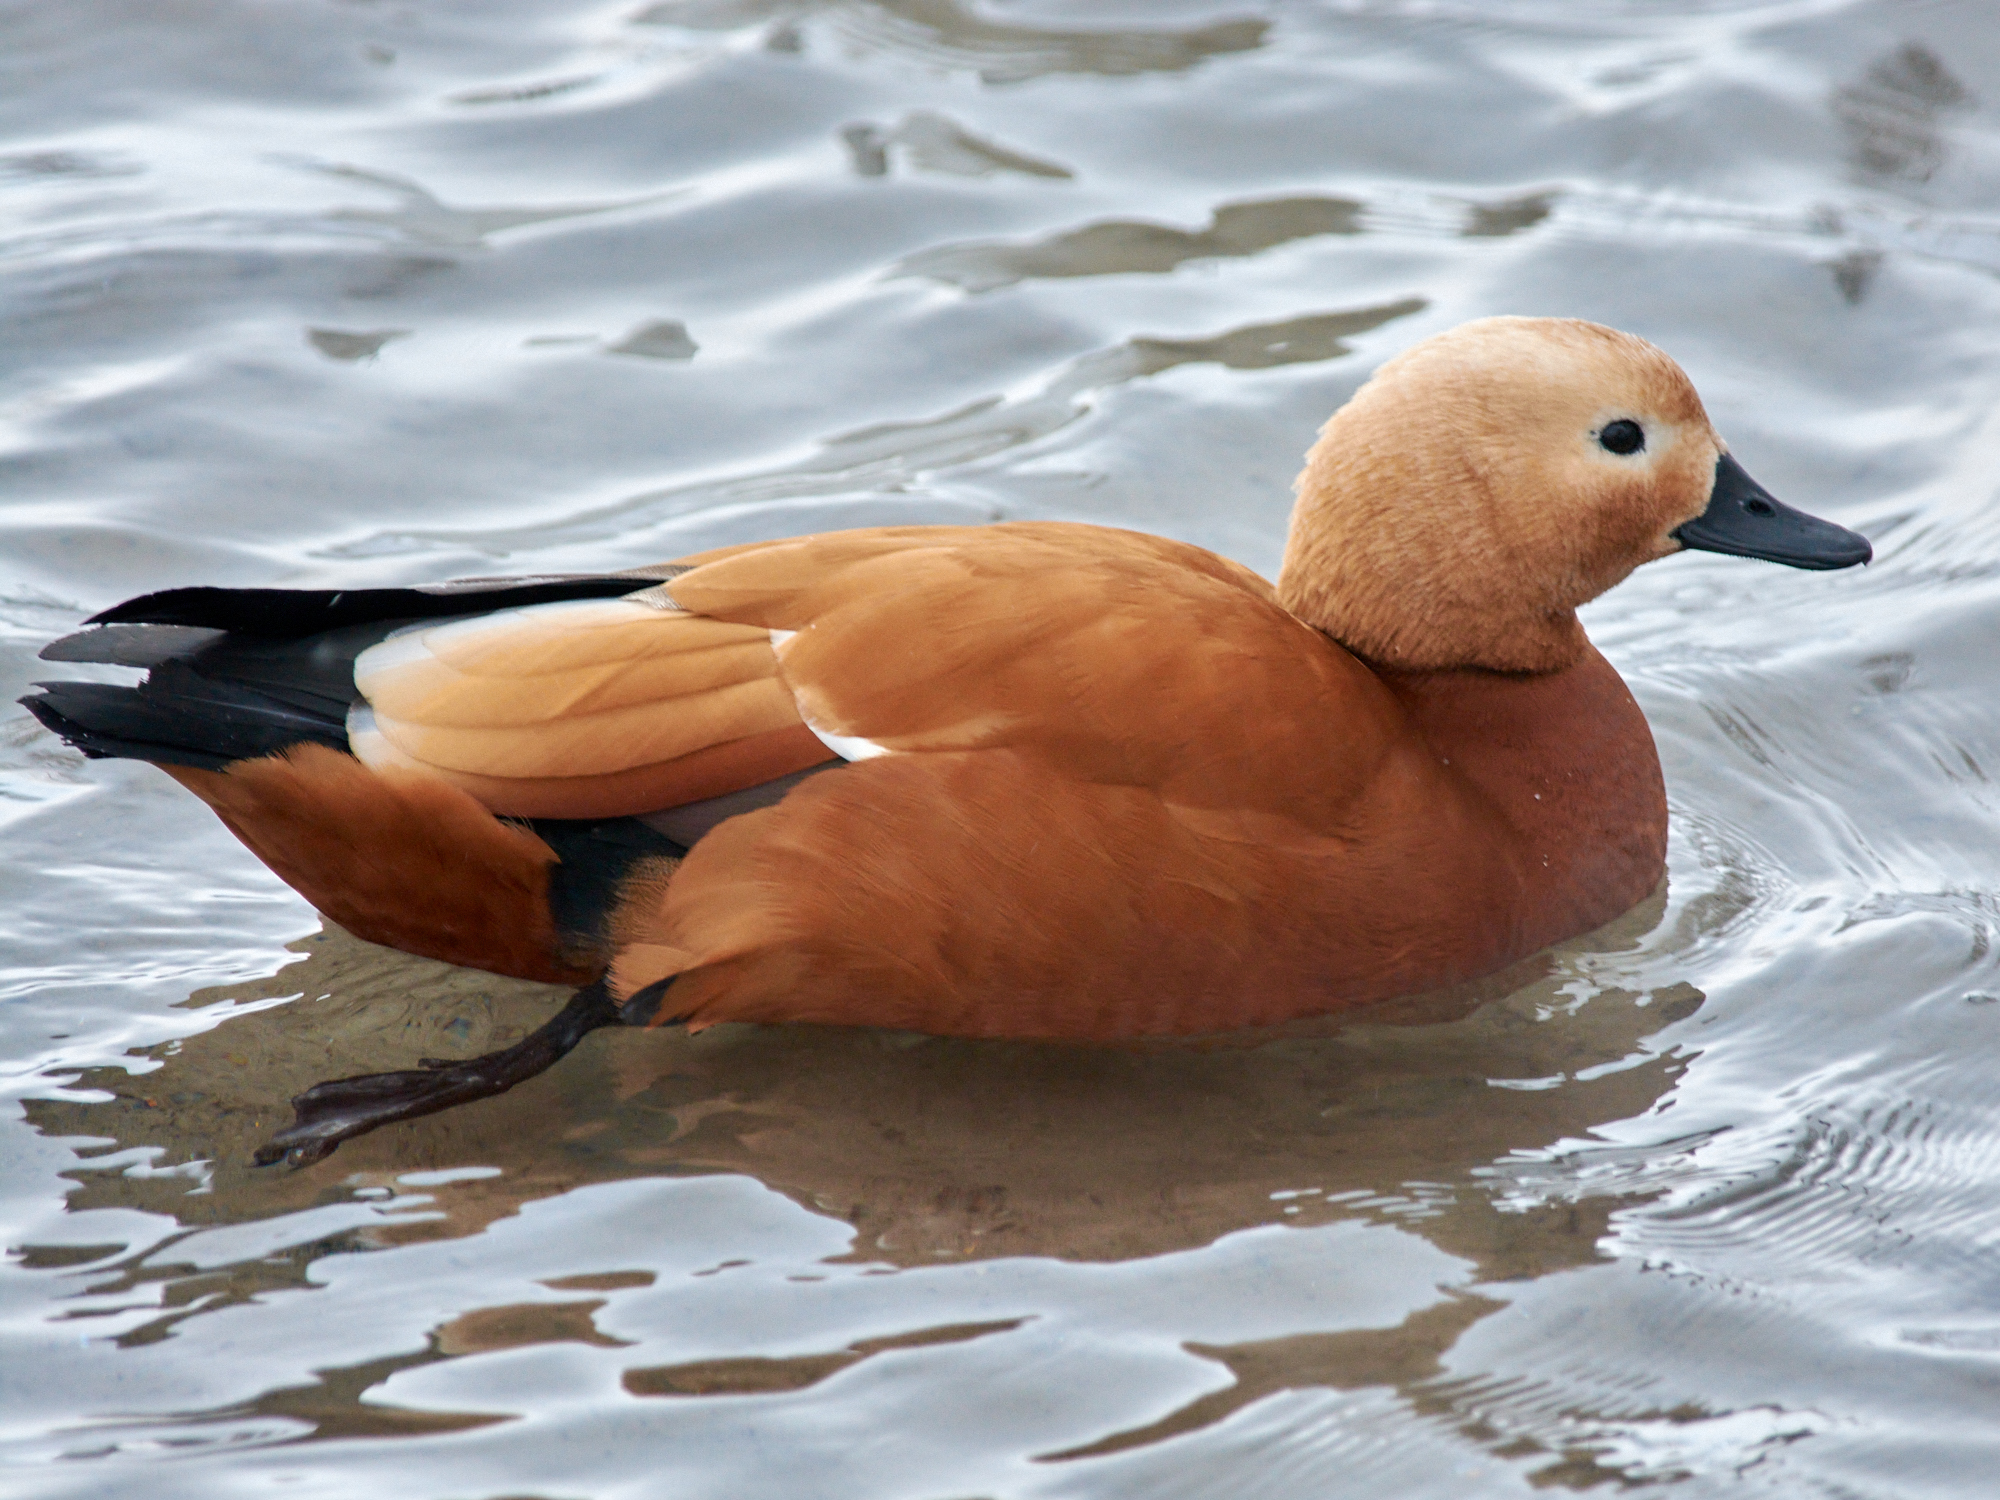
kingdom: Animalia
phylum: Chordata
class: Aves
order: Anseriformes
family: Anatidae
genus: Tadorna
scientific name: Tadorna ferruginea
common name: Ruddy shelduck
